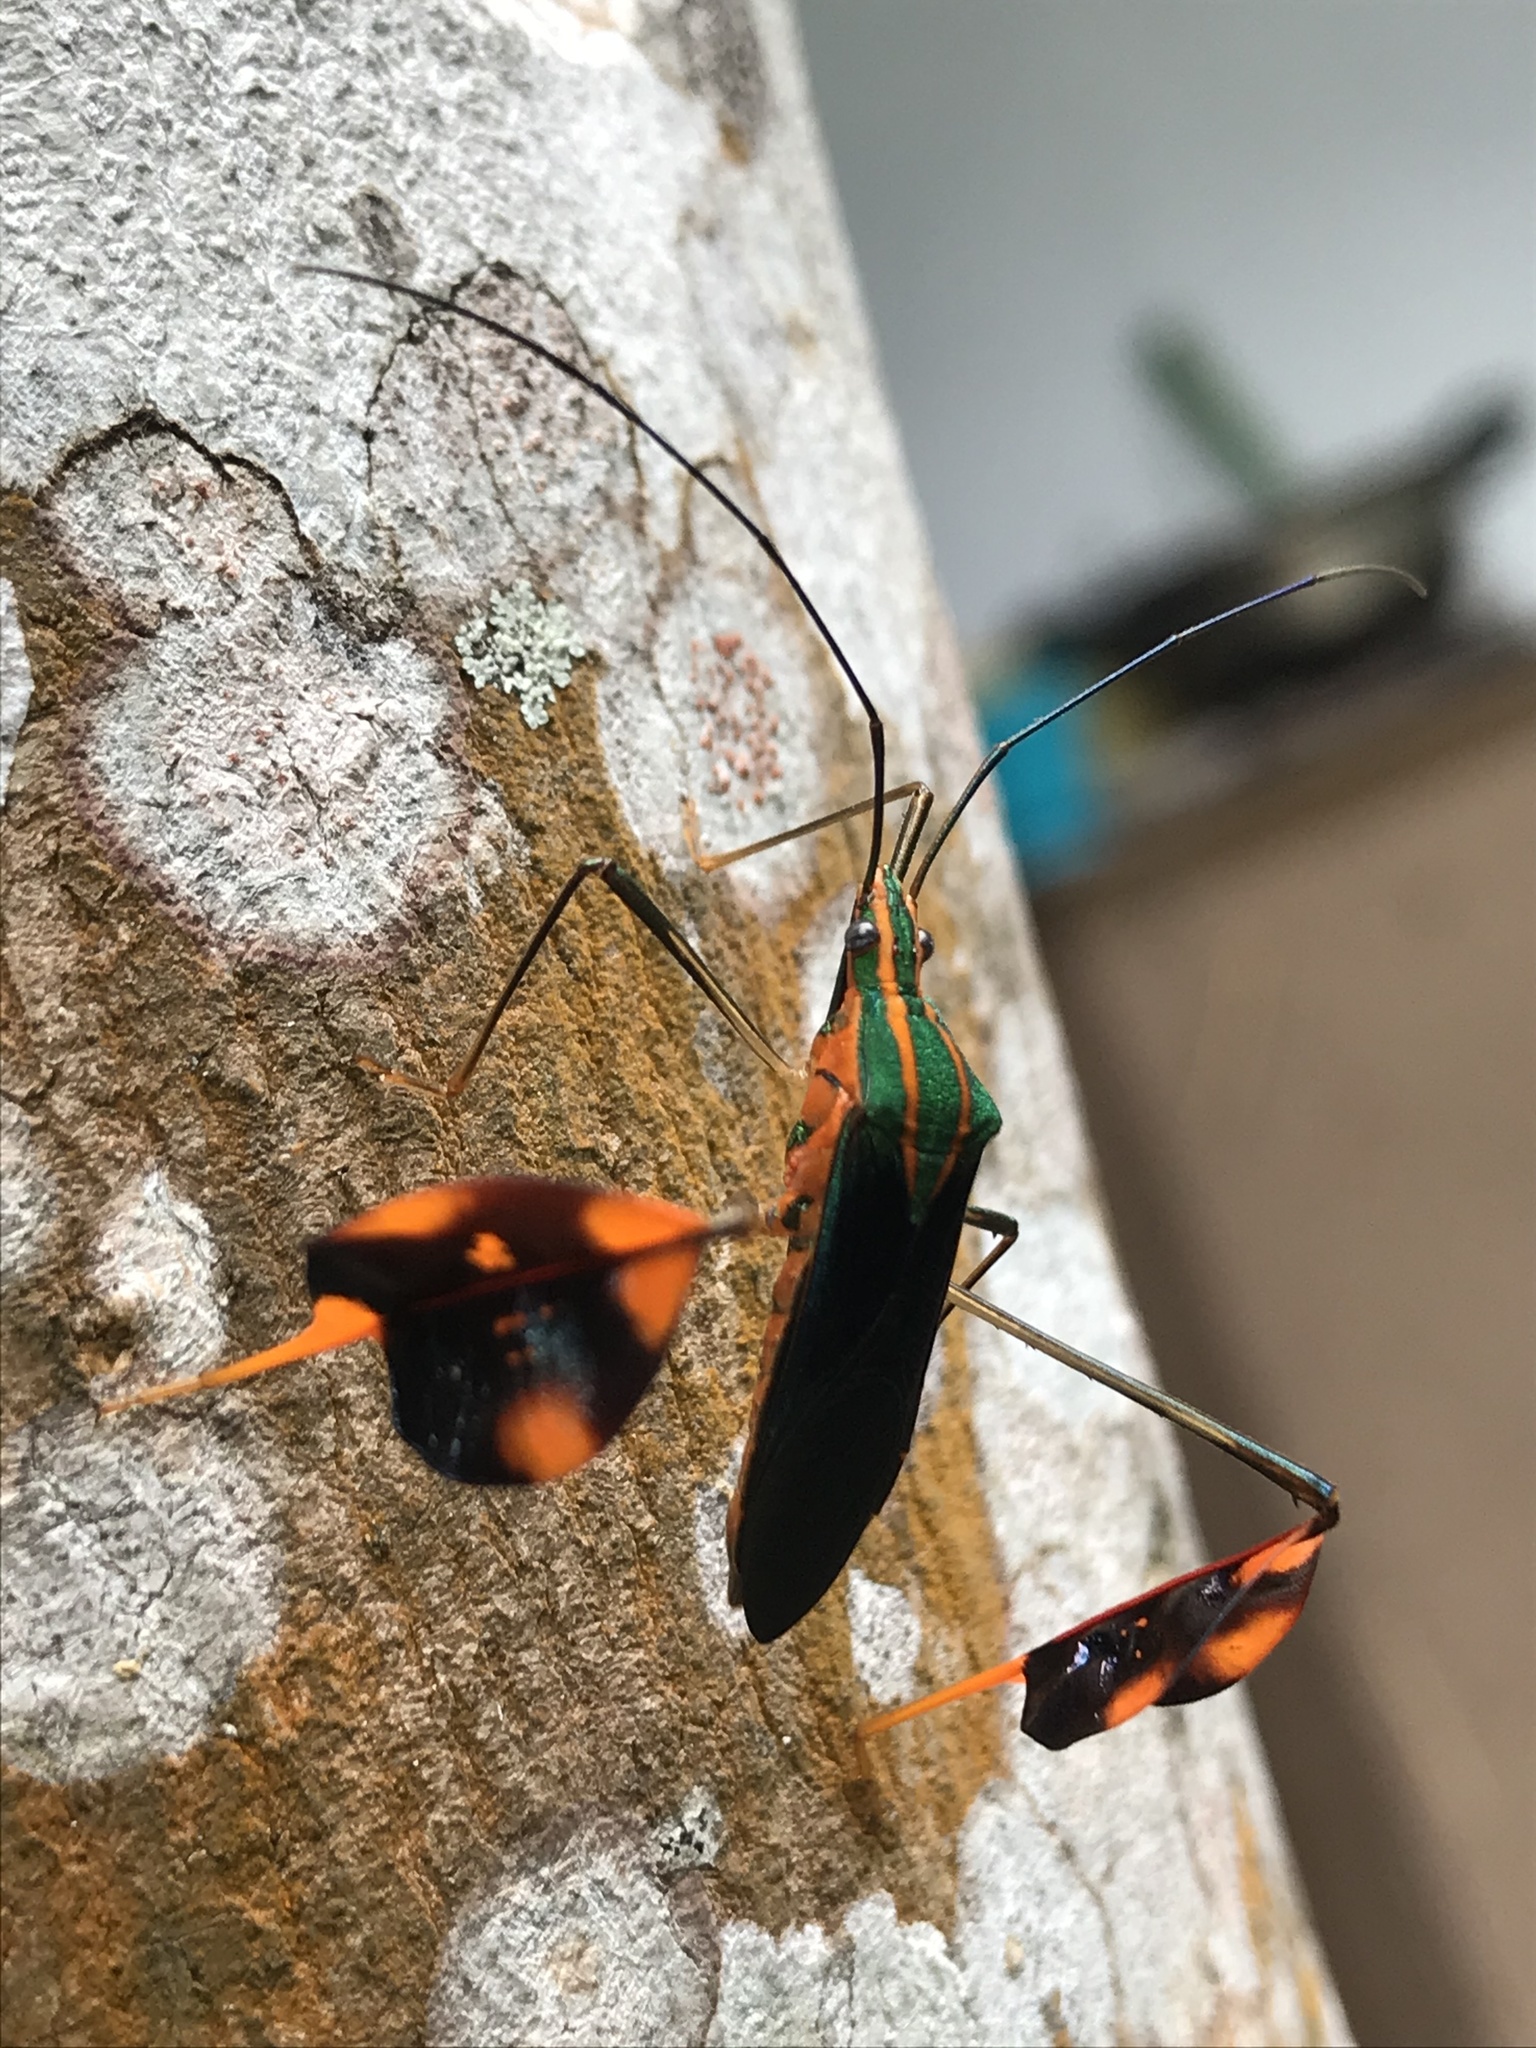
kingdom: Animalia
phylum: Arthropoda
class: Insecta
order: Hemiptera
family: Coreidae
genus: Diactor
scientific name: Diactor bogotanus
